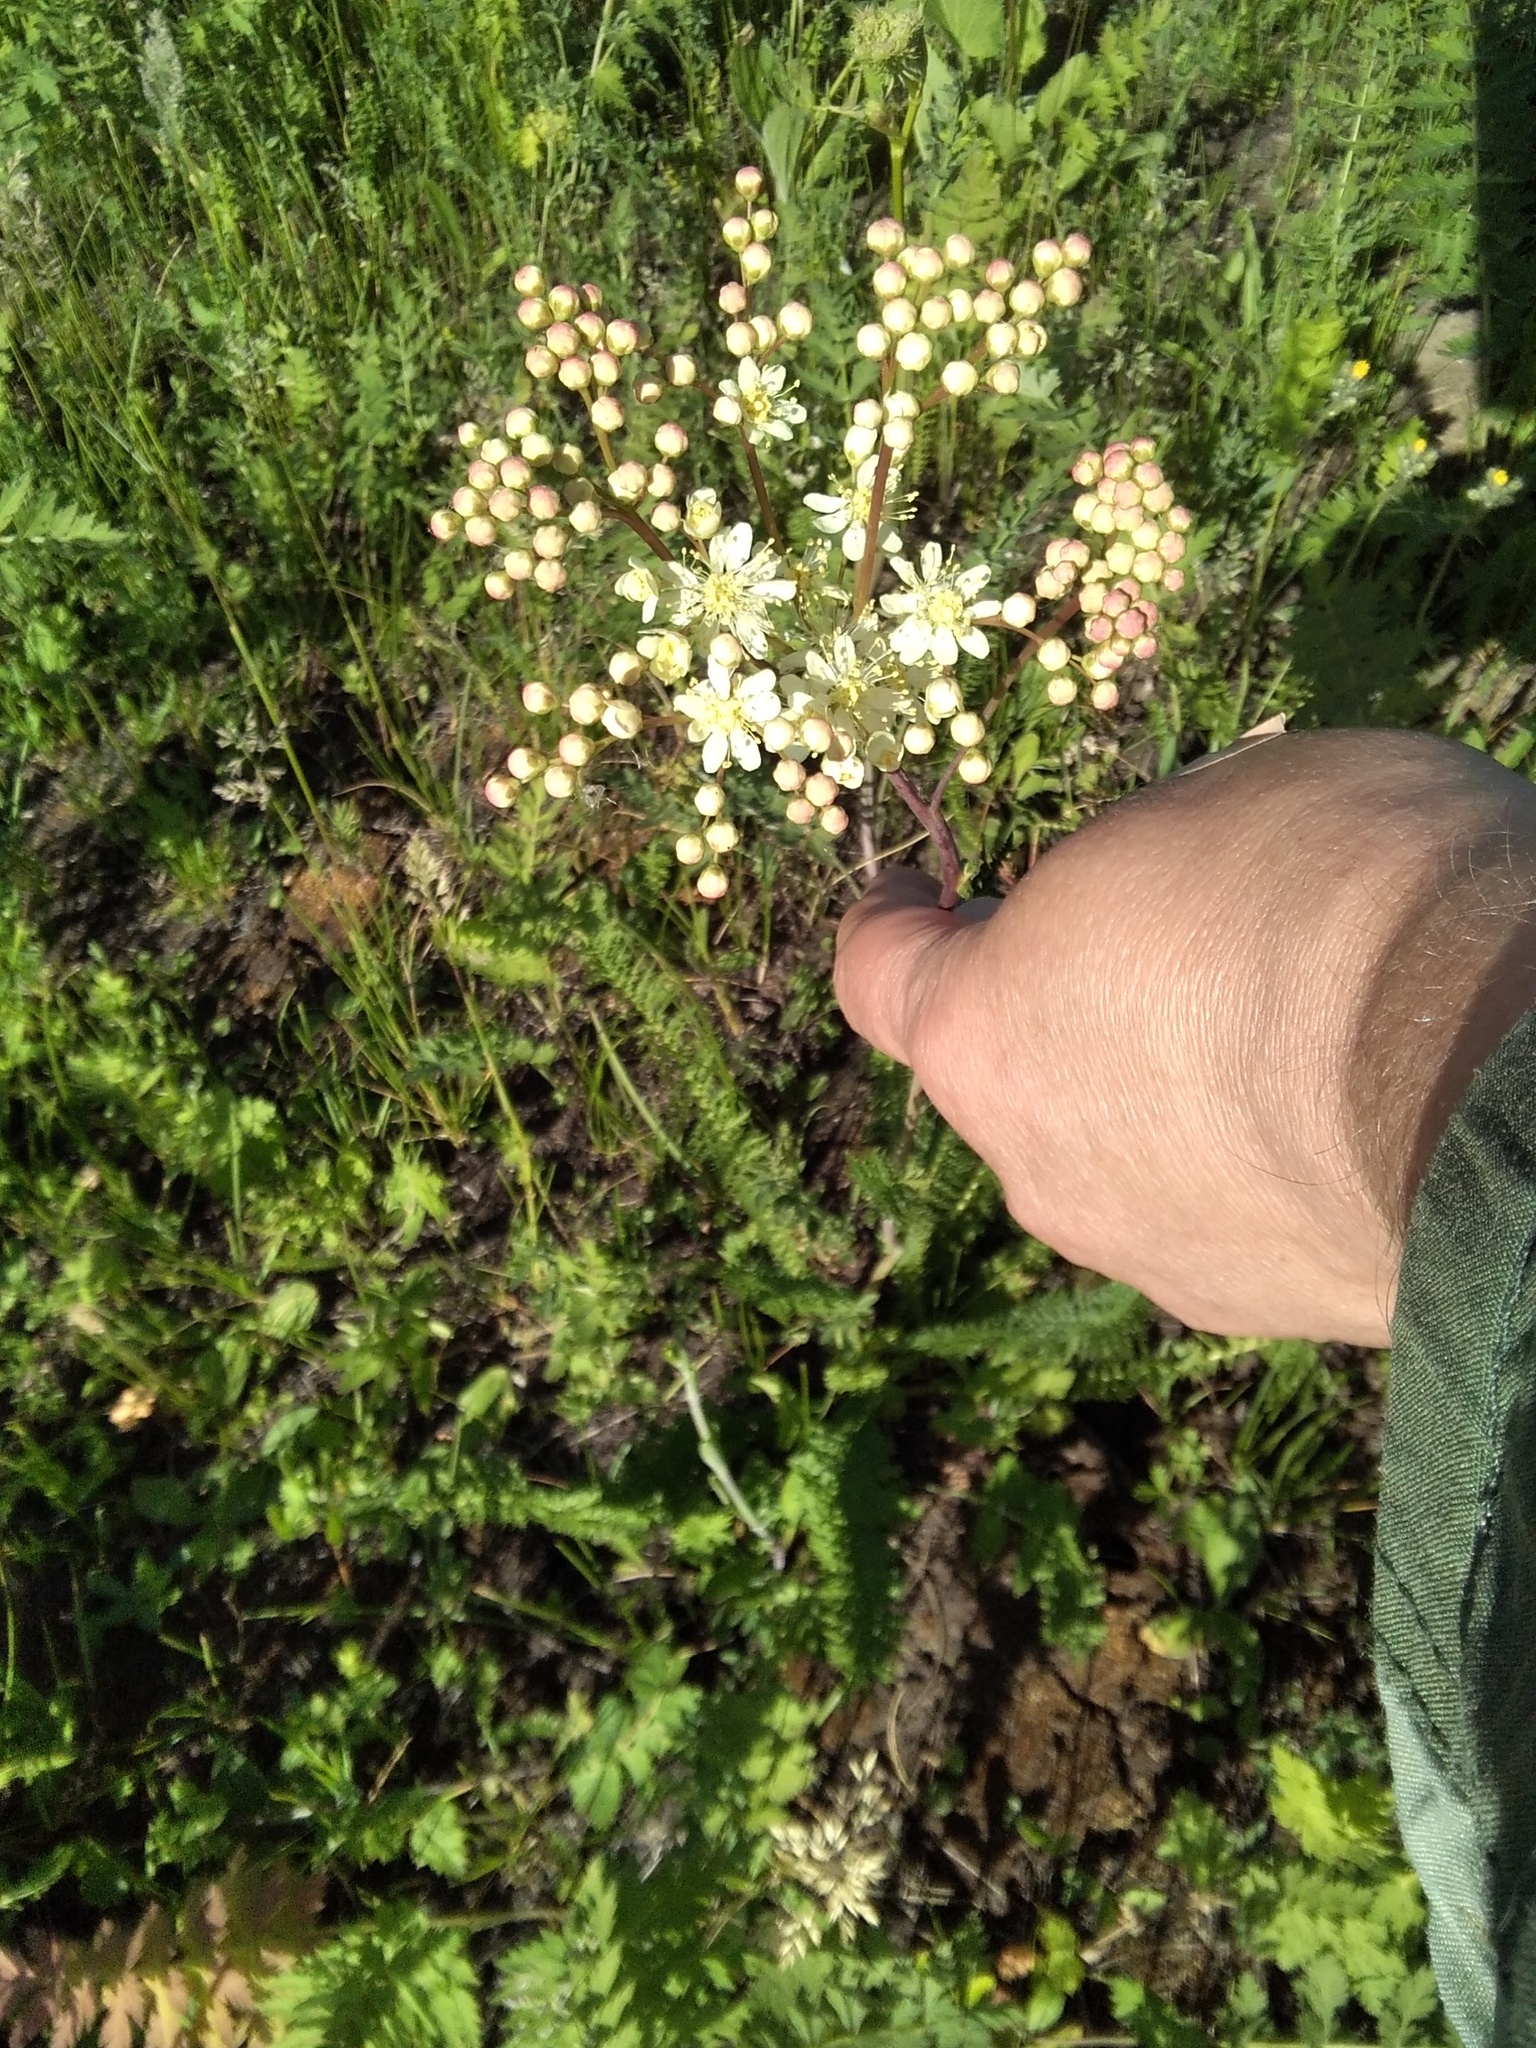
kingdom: Plantae
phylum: Tracheophyta
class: Magnoliopsida
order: Rosales
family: Rosaceae
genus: Filipendula
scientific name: Filipendula vulgaris
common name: Dropwort
